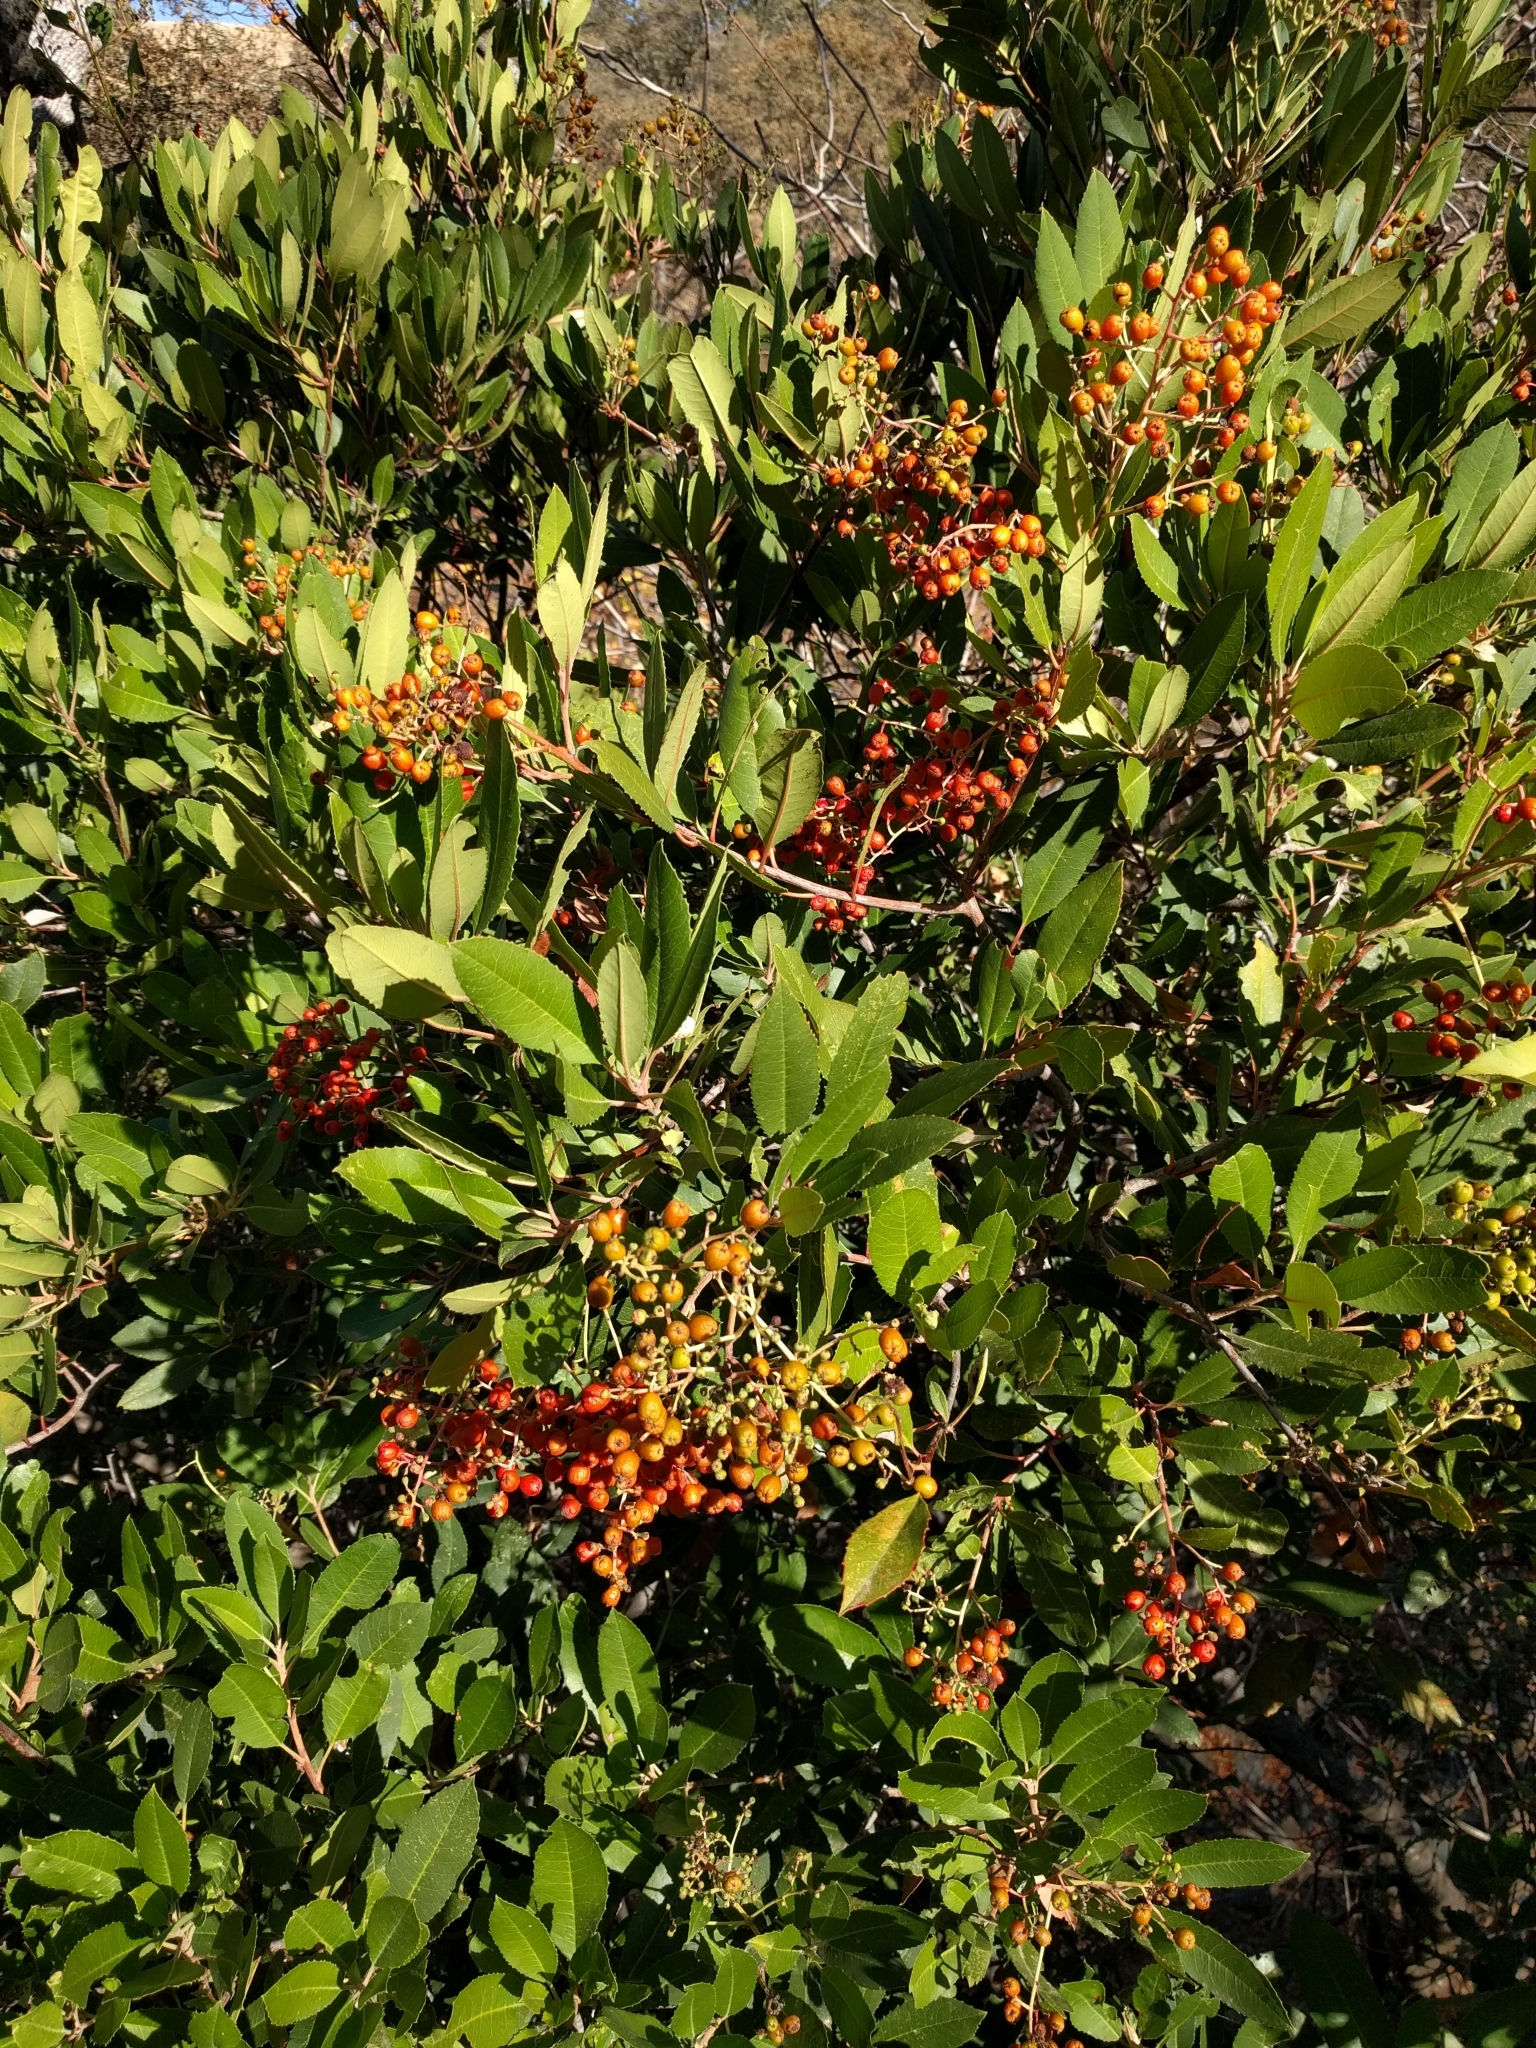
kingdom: Plantae
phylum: Tracheophyta
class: Magnoliopsida
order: Rosales
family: Rosaceae
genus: Heteromeles
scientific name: Heteromeles arbutifolia
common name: California-holly
